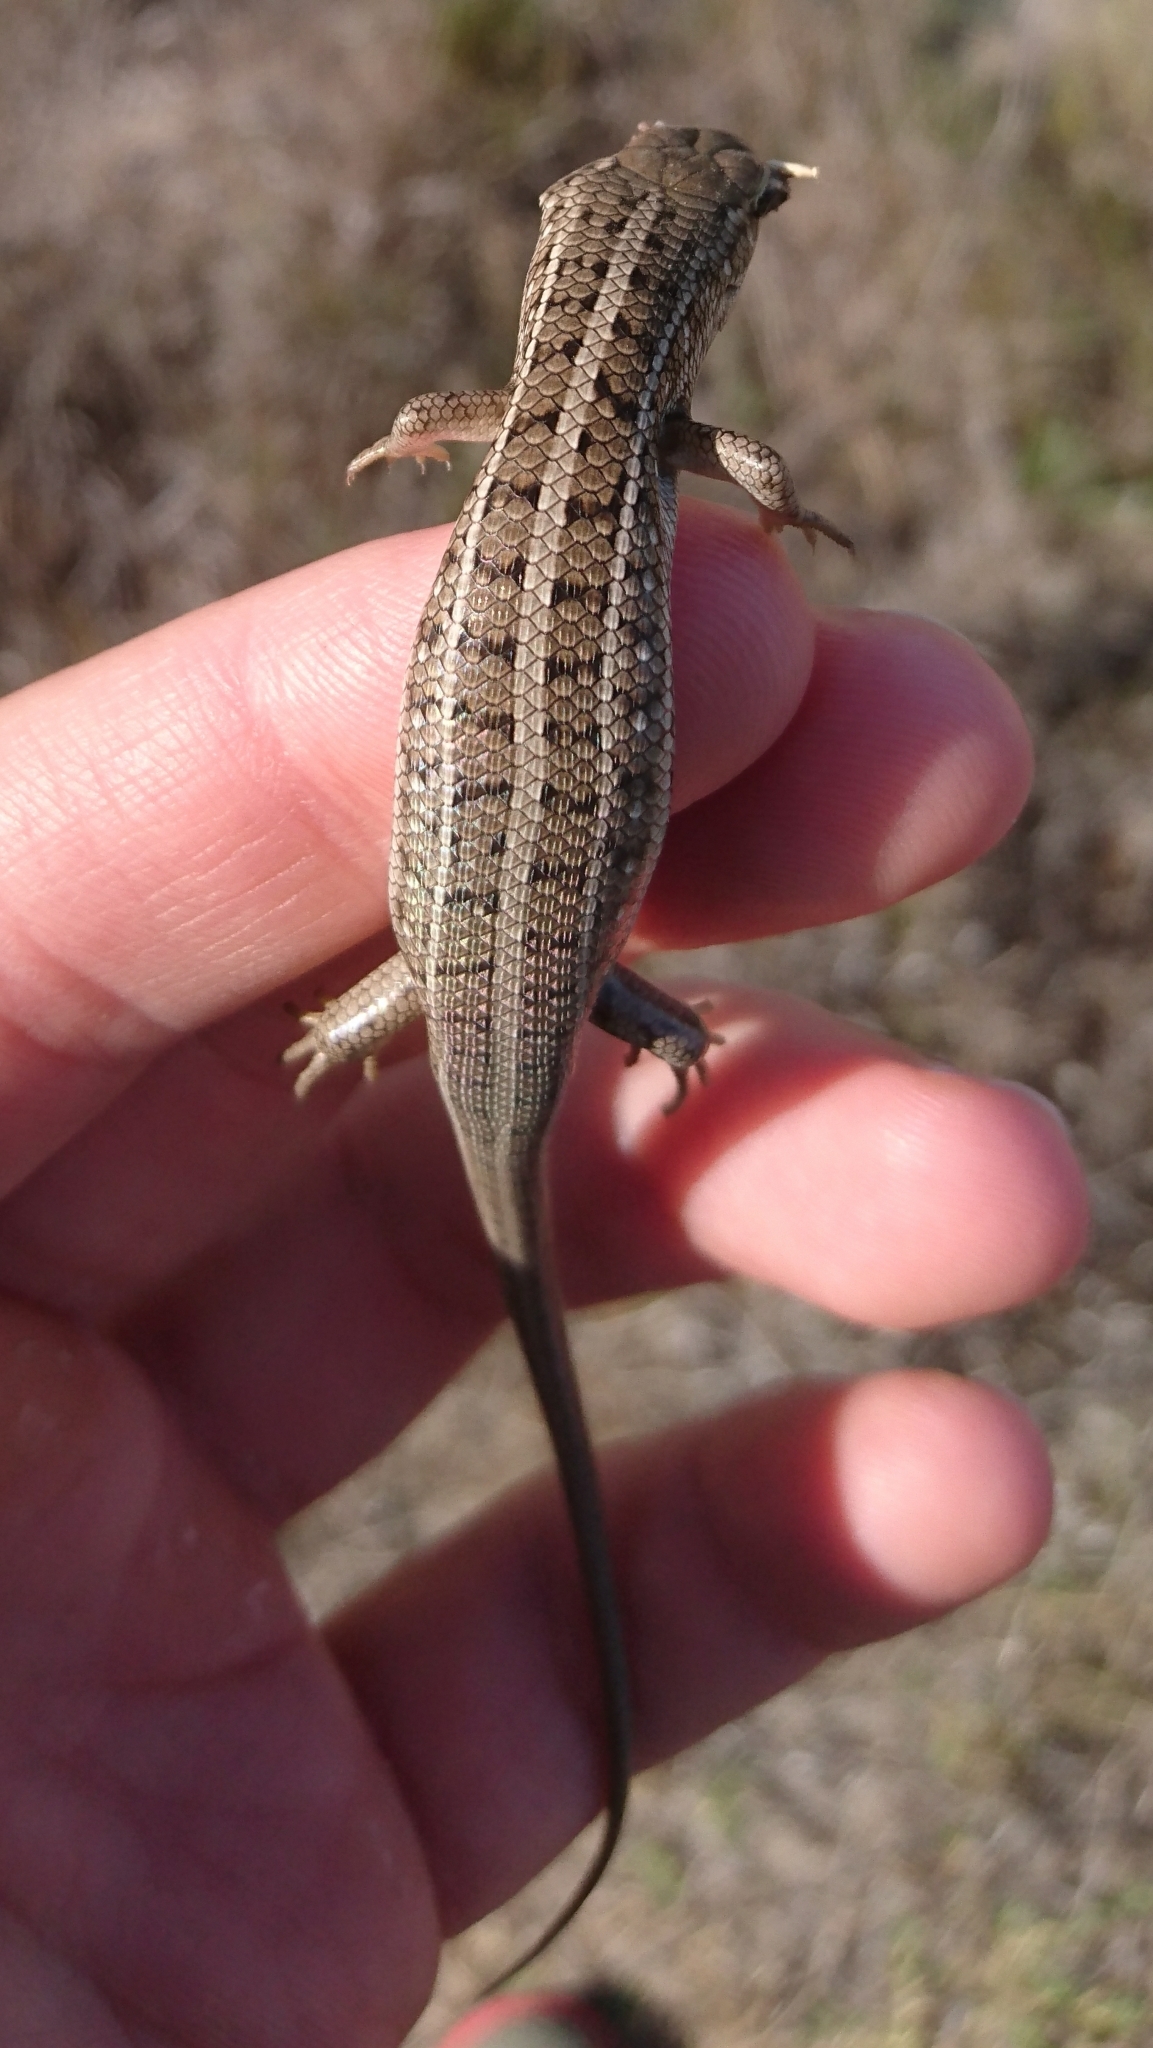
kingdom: Animalia
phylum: Chordata
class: Squamata
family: Scincidae
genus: Trachylepis
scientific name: Trachylepis capensis
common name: Cape skink
